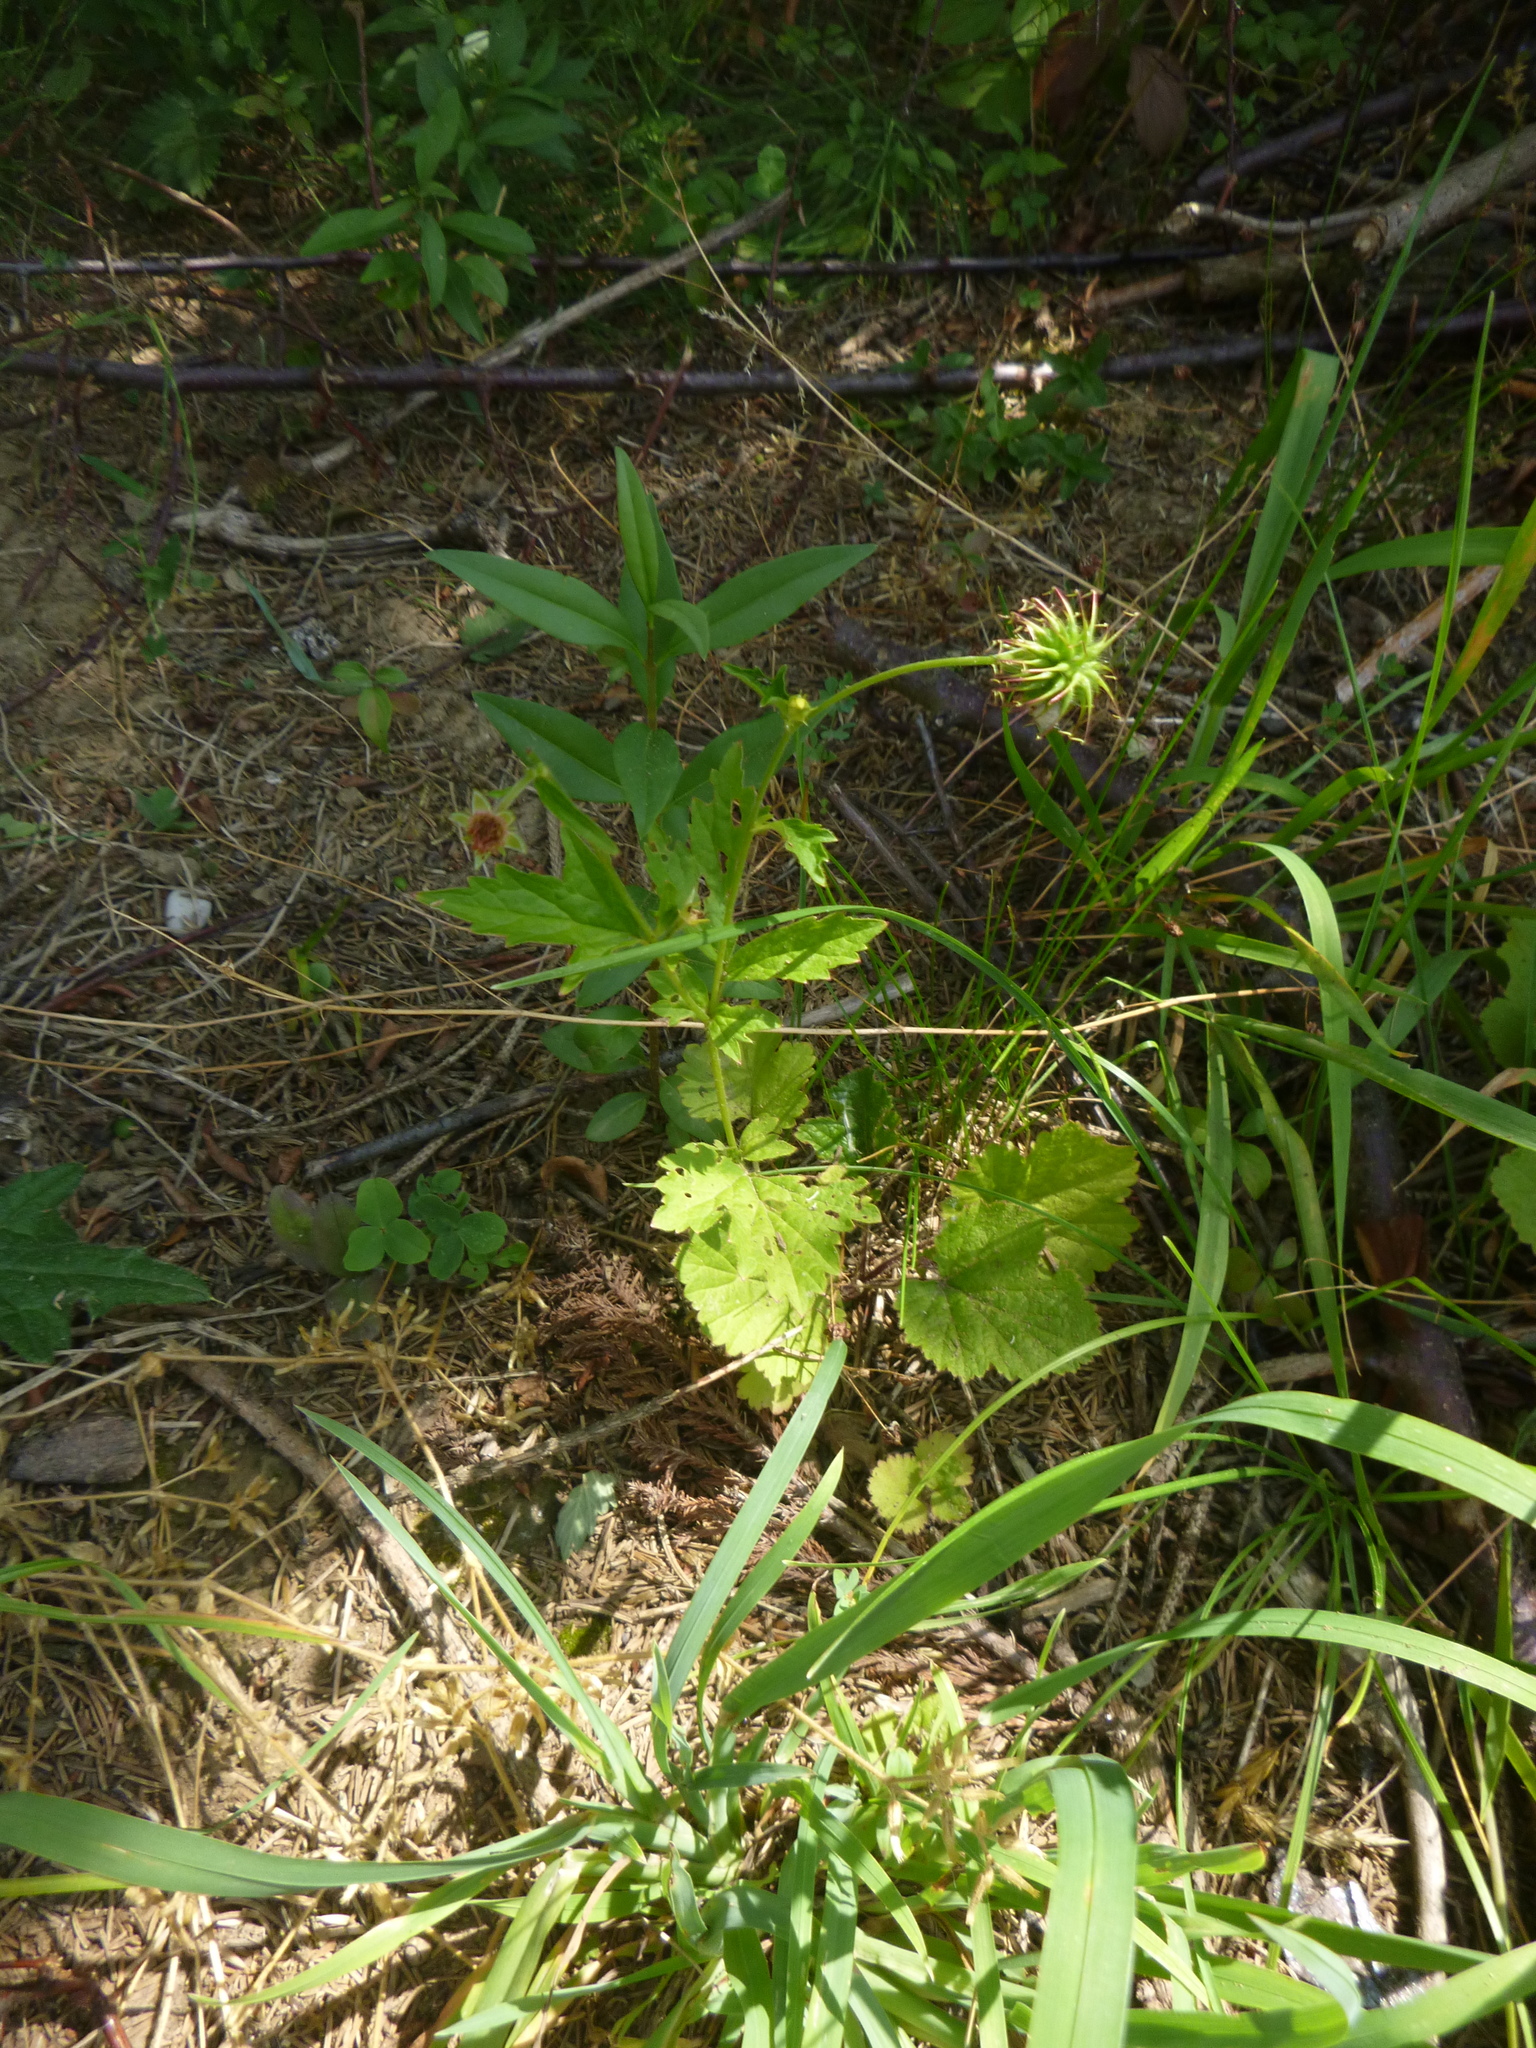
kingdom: Plantae
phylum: Tracheophyta
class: Magnoliopsida
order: Rosales
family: Rosaceae
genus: Geum
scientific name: Geum urbanum
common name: Wood avens
